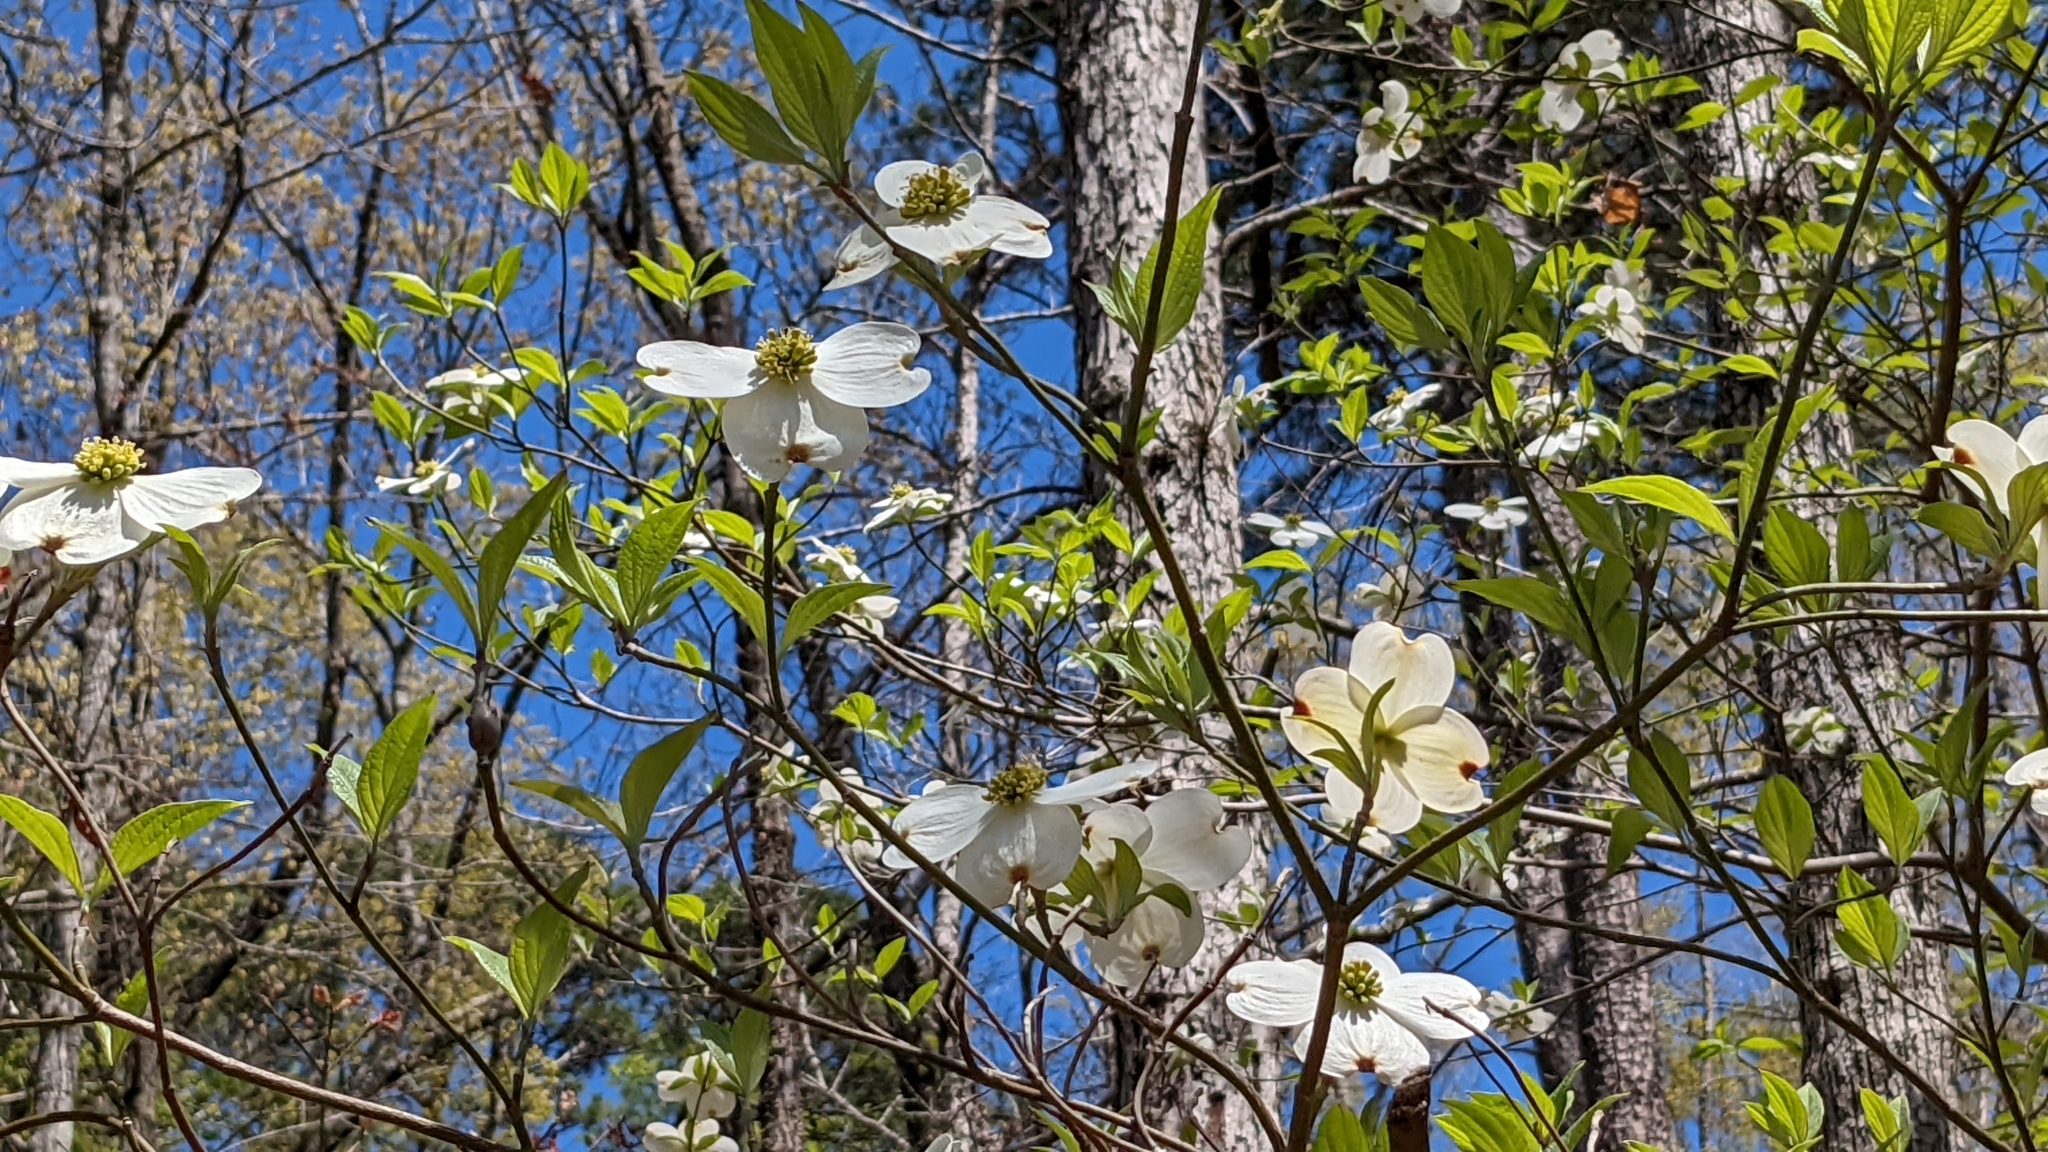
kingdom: Plantae
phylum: Tracheophyta
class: Magnoliopsida
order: Cornales
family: Cornaceae
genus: Cornus
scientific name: Cornus florida
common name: Flowering dogwood
